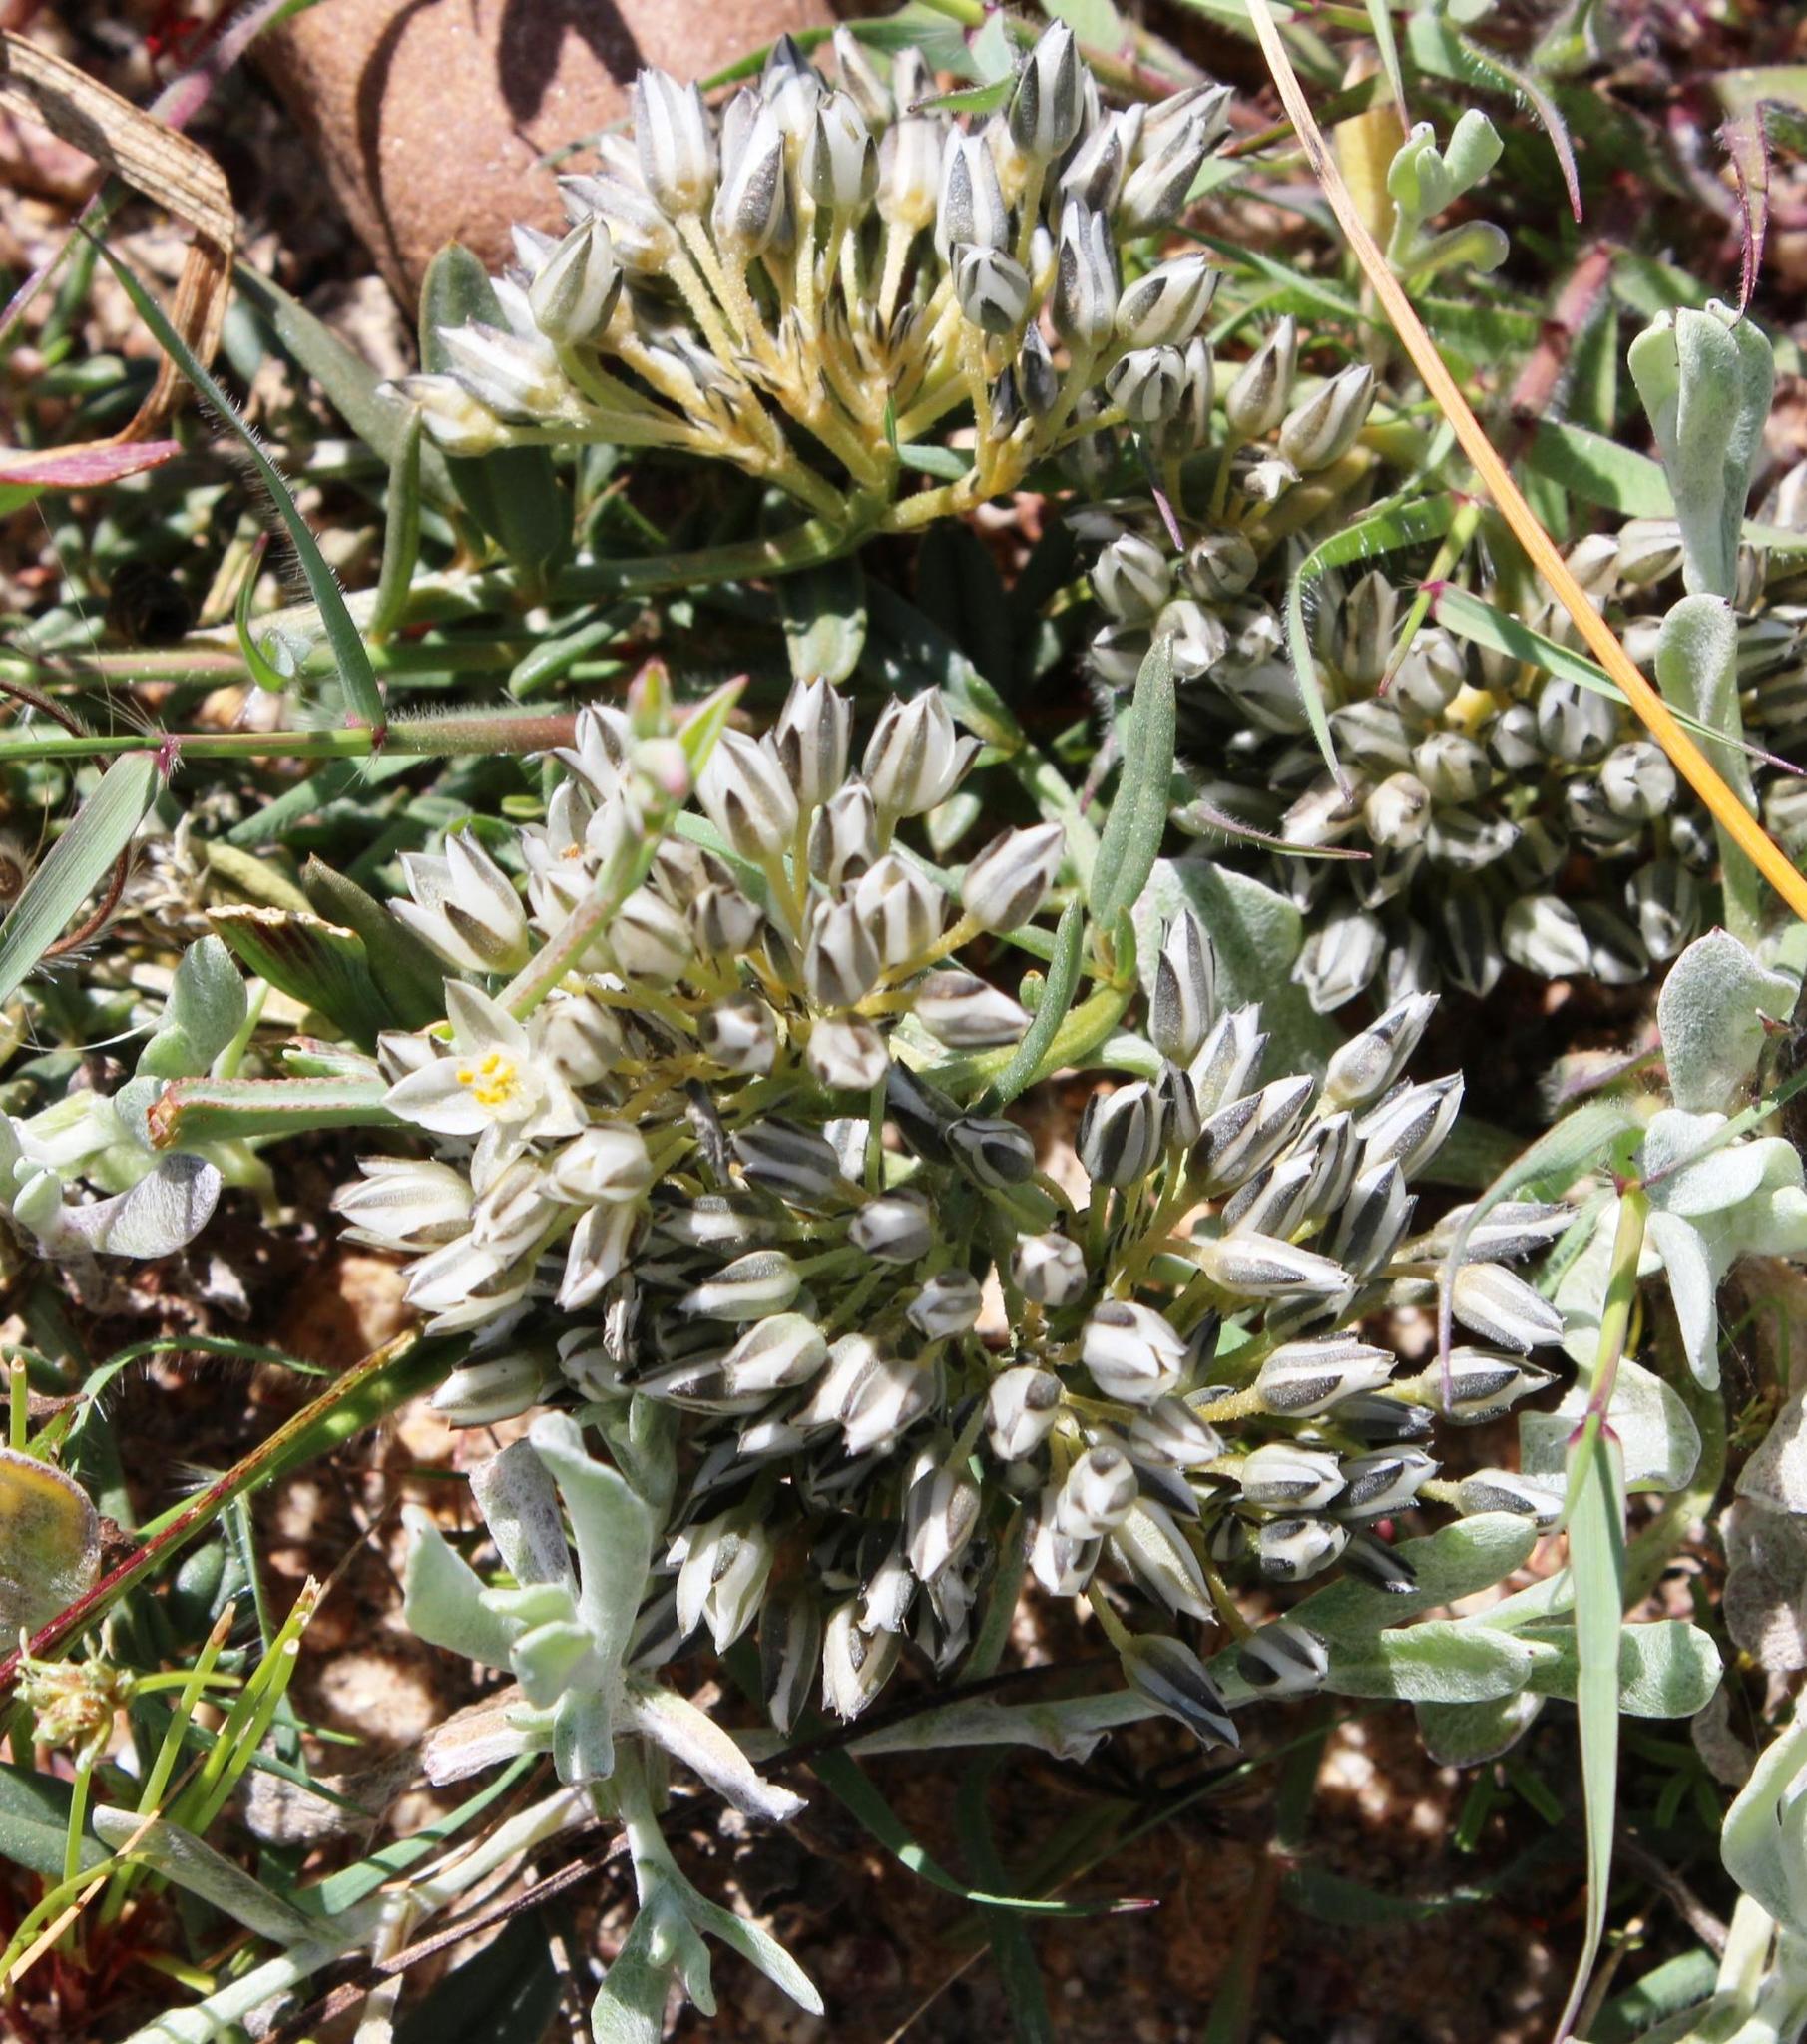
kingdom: Plantae
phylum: Tracheophyta
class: Magnoliopsida
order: Caryophyllales
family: Limeaceae
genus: Limeum
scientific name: Limeum africanum
